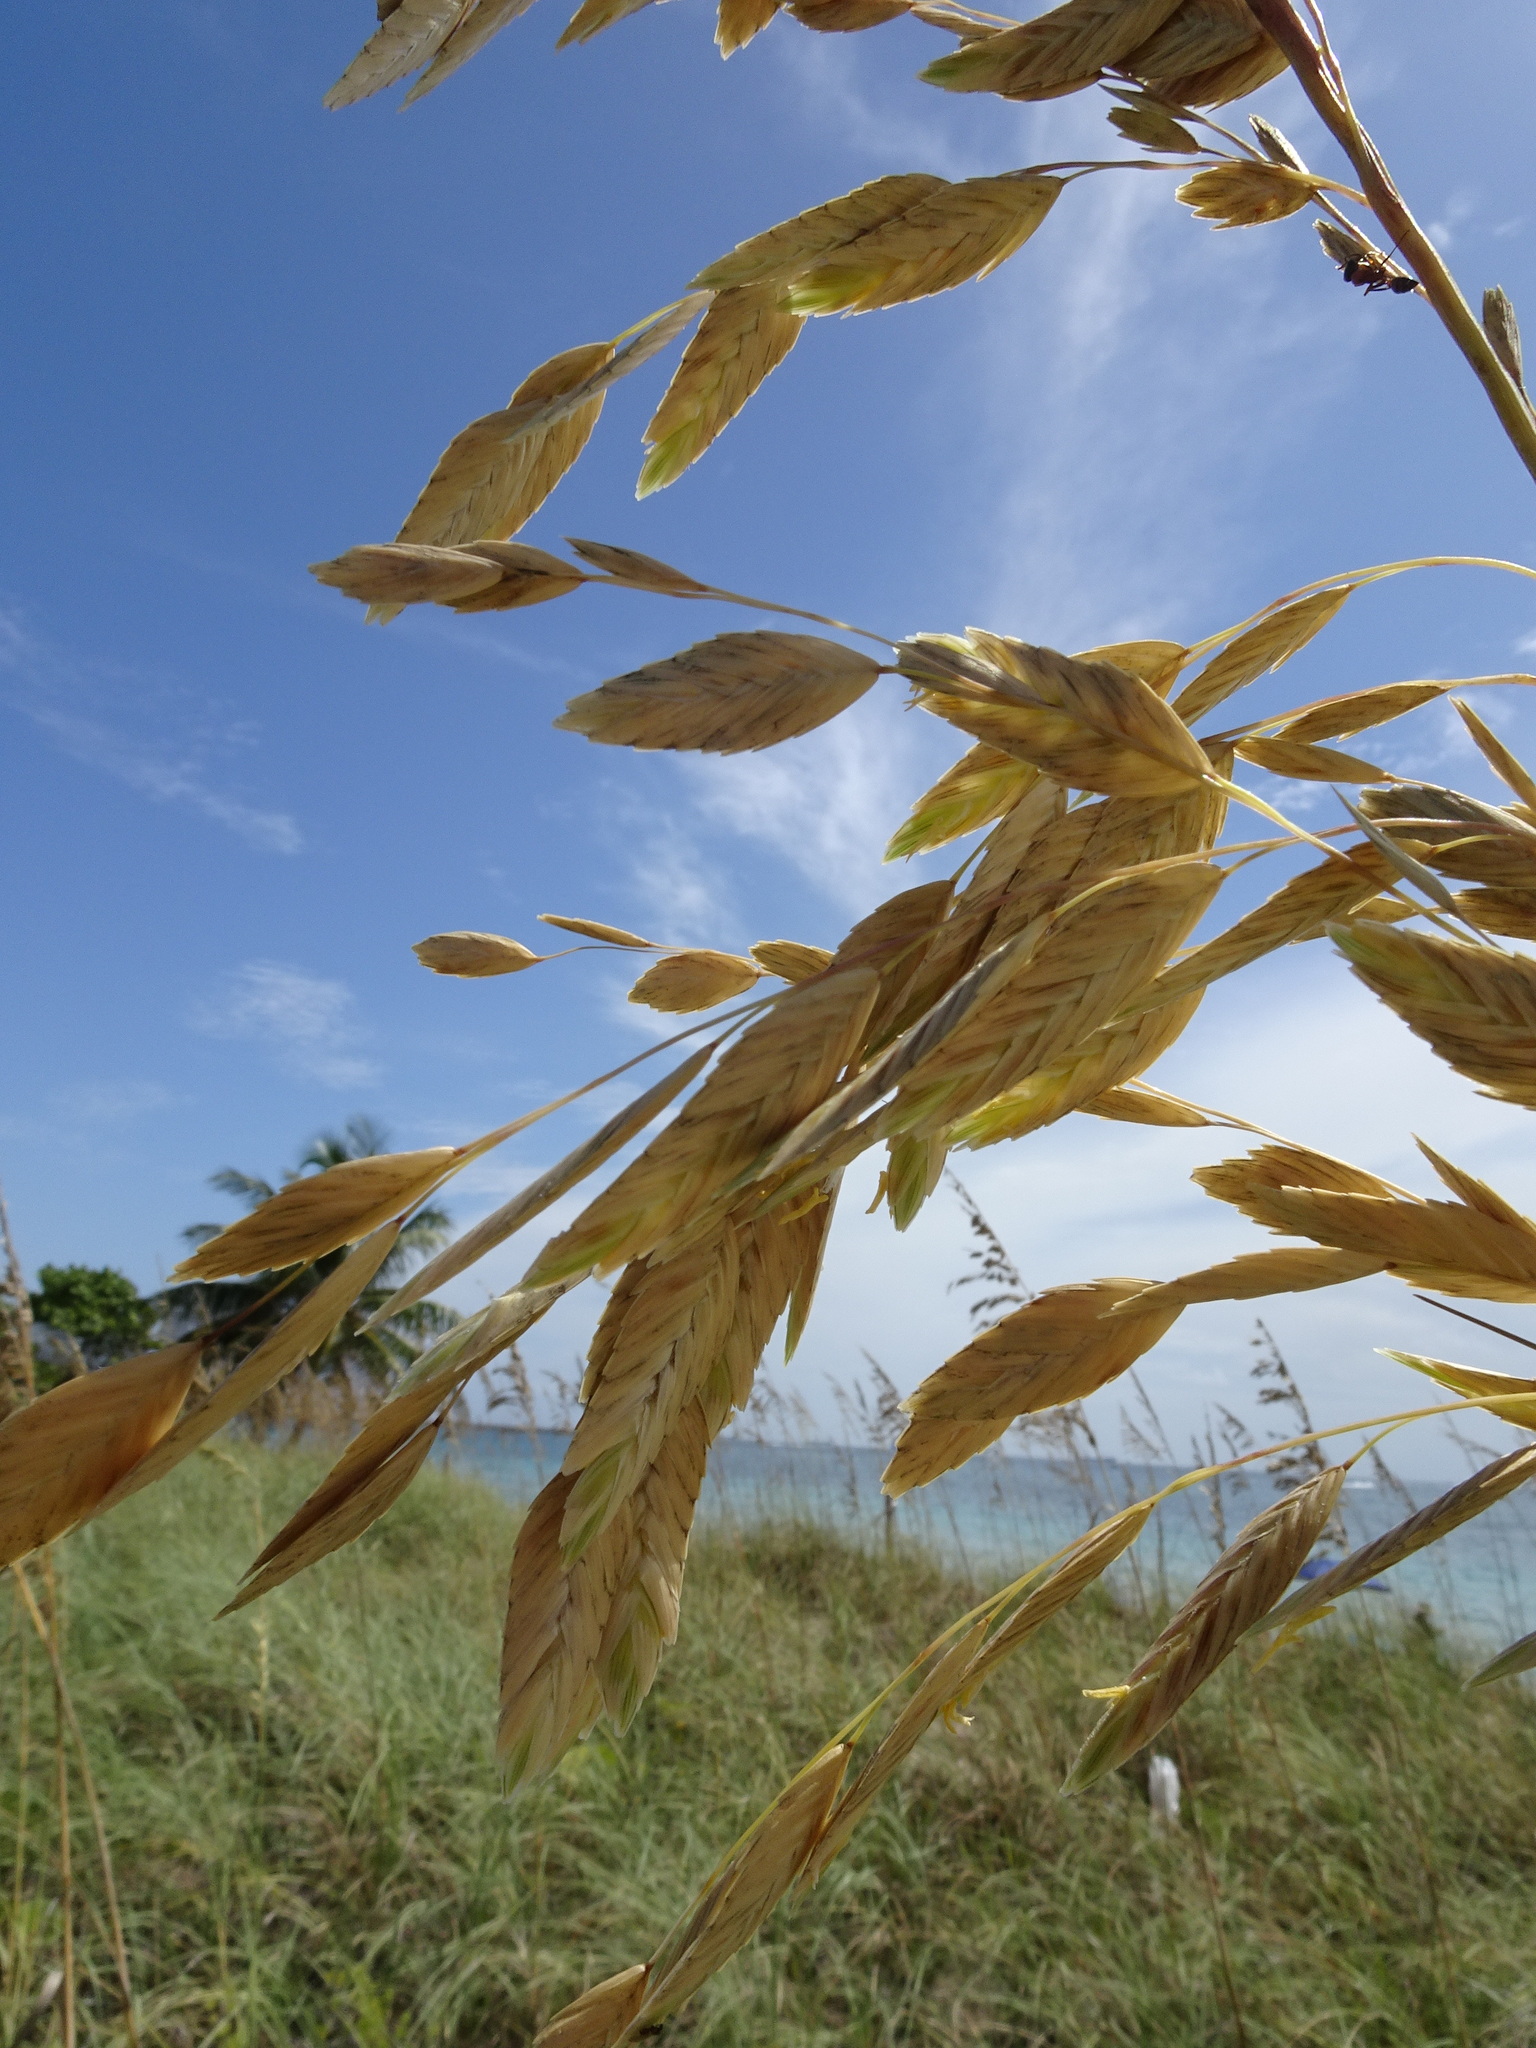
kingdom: Plantae
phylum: Tracheophyta
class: Liliopsida
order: Poales
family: Poaceae
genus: Uniola
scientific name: Uniola paniculata
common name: Seaside-oats
